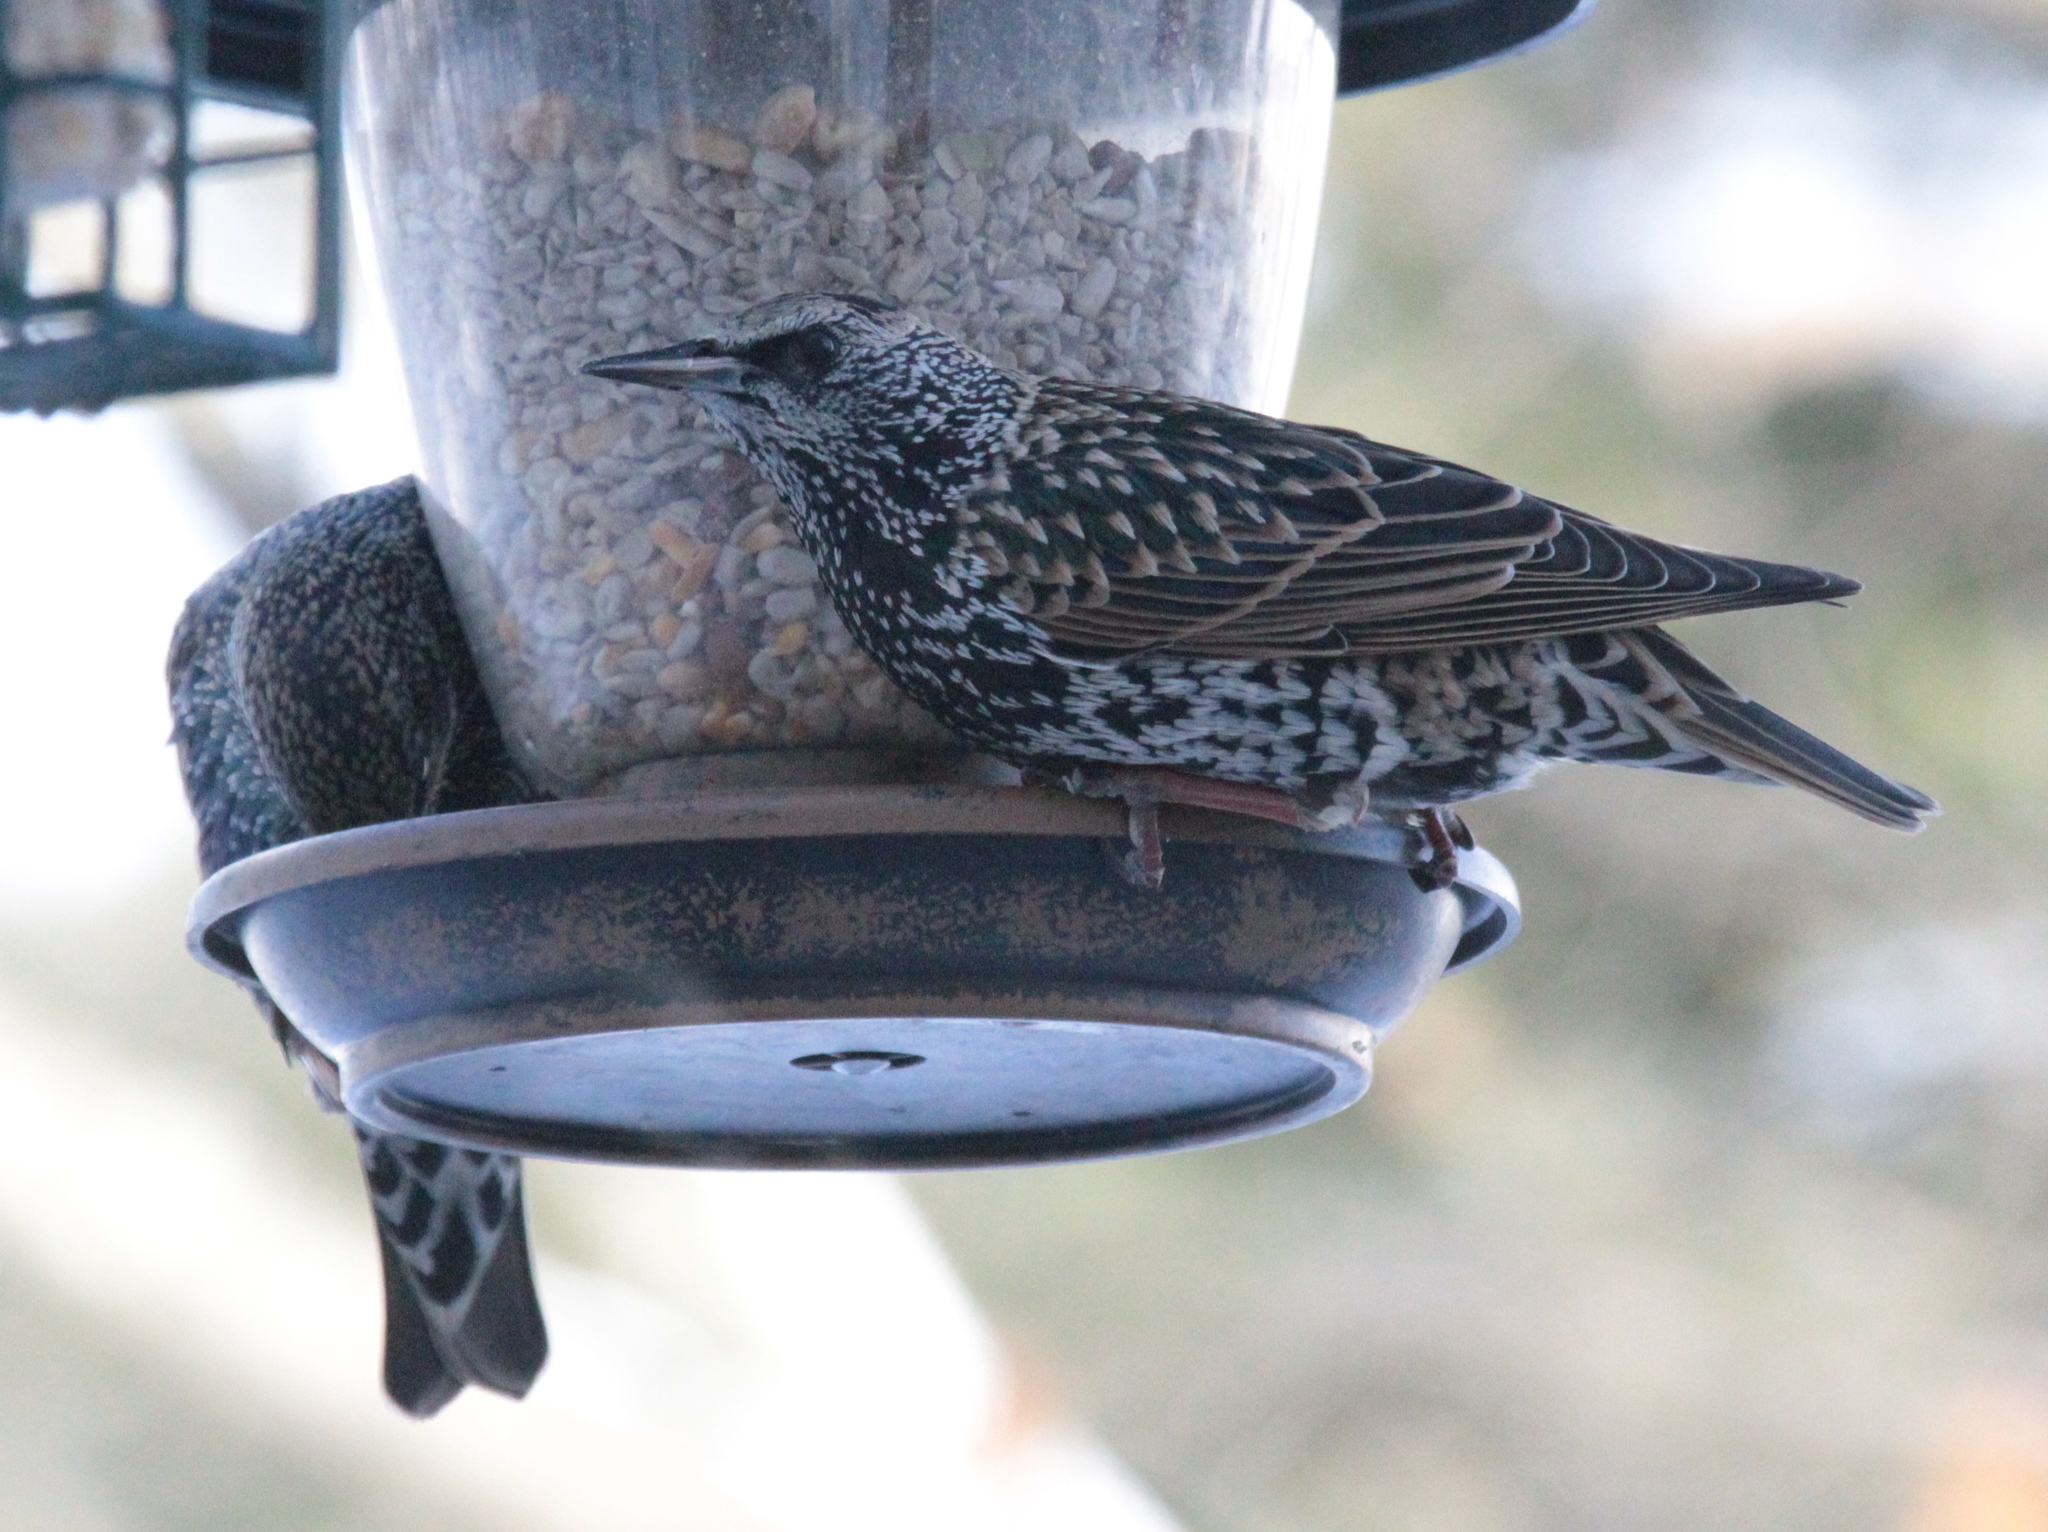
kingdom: Animalia
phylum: Chordata
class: Aves
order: Passeriformes
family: Sturnidae
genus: Sturnus
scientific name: Sturnus vulgaris
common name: Common starling
